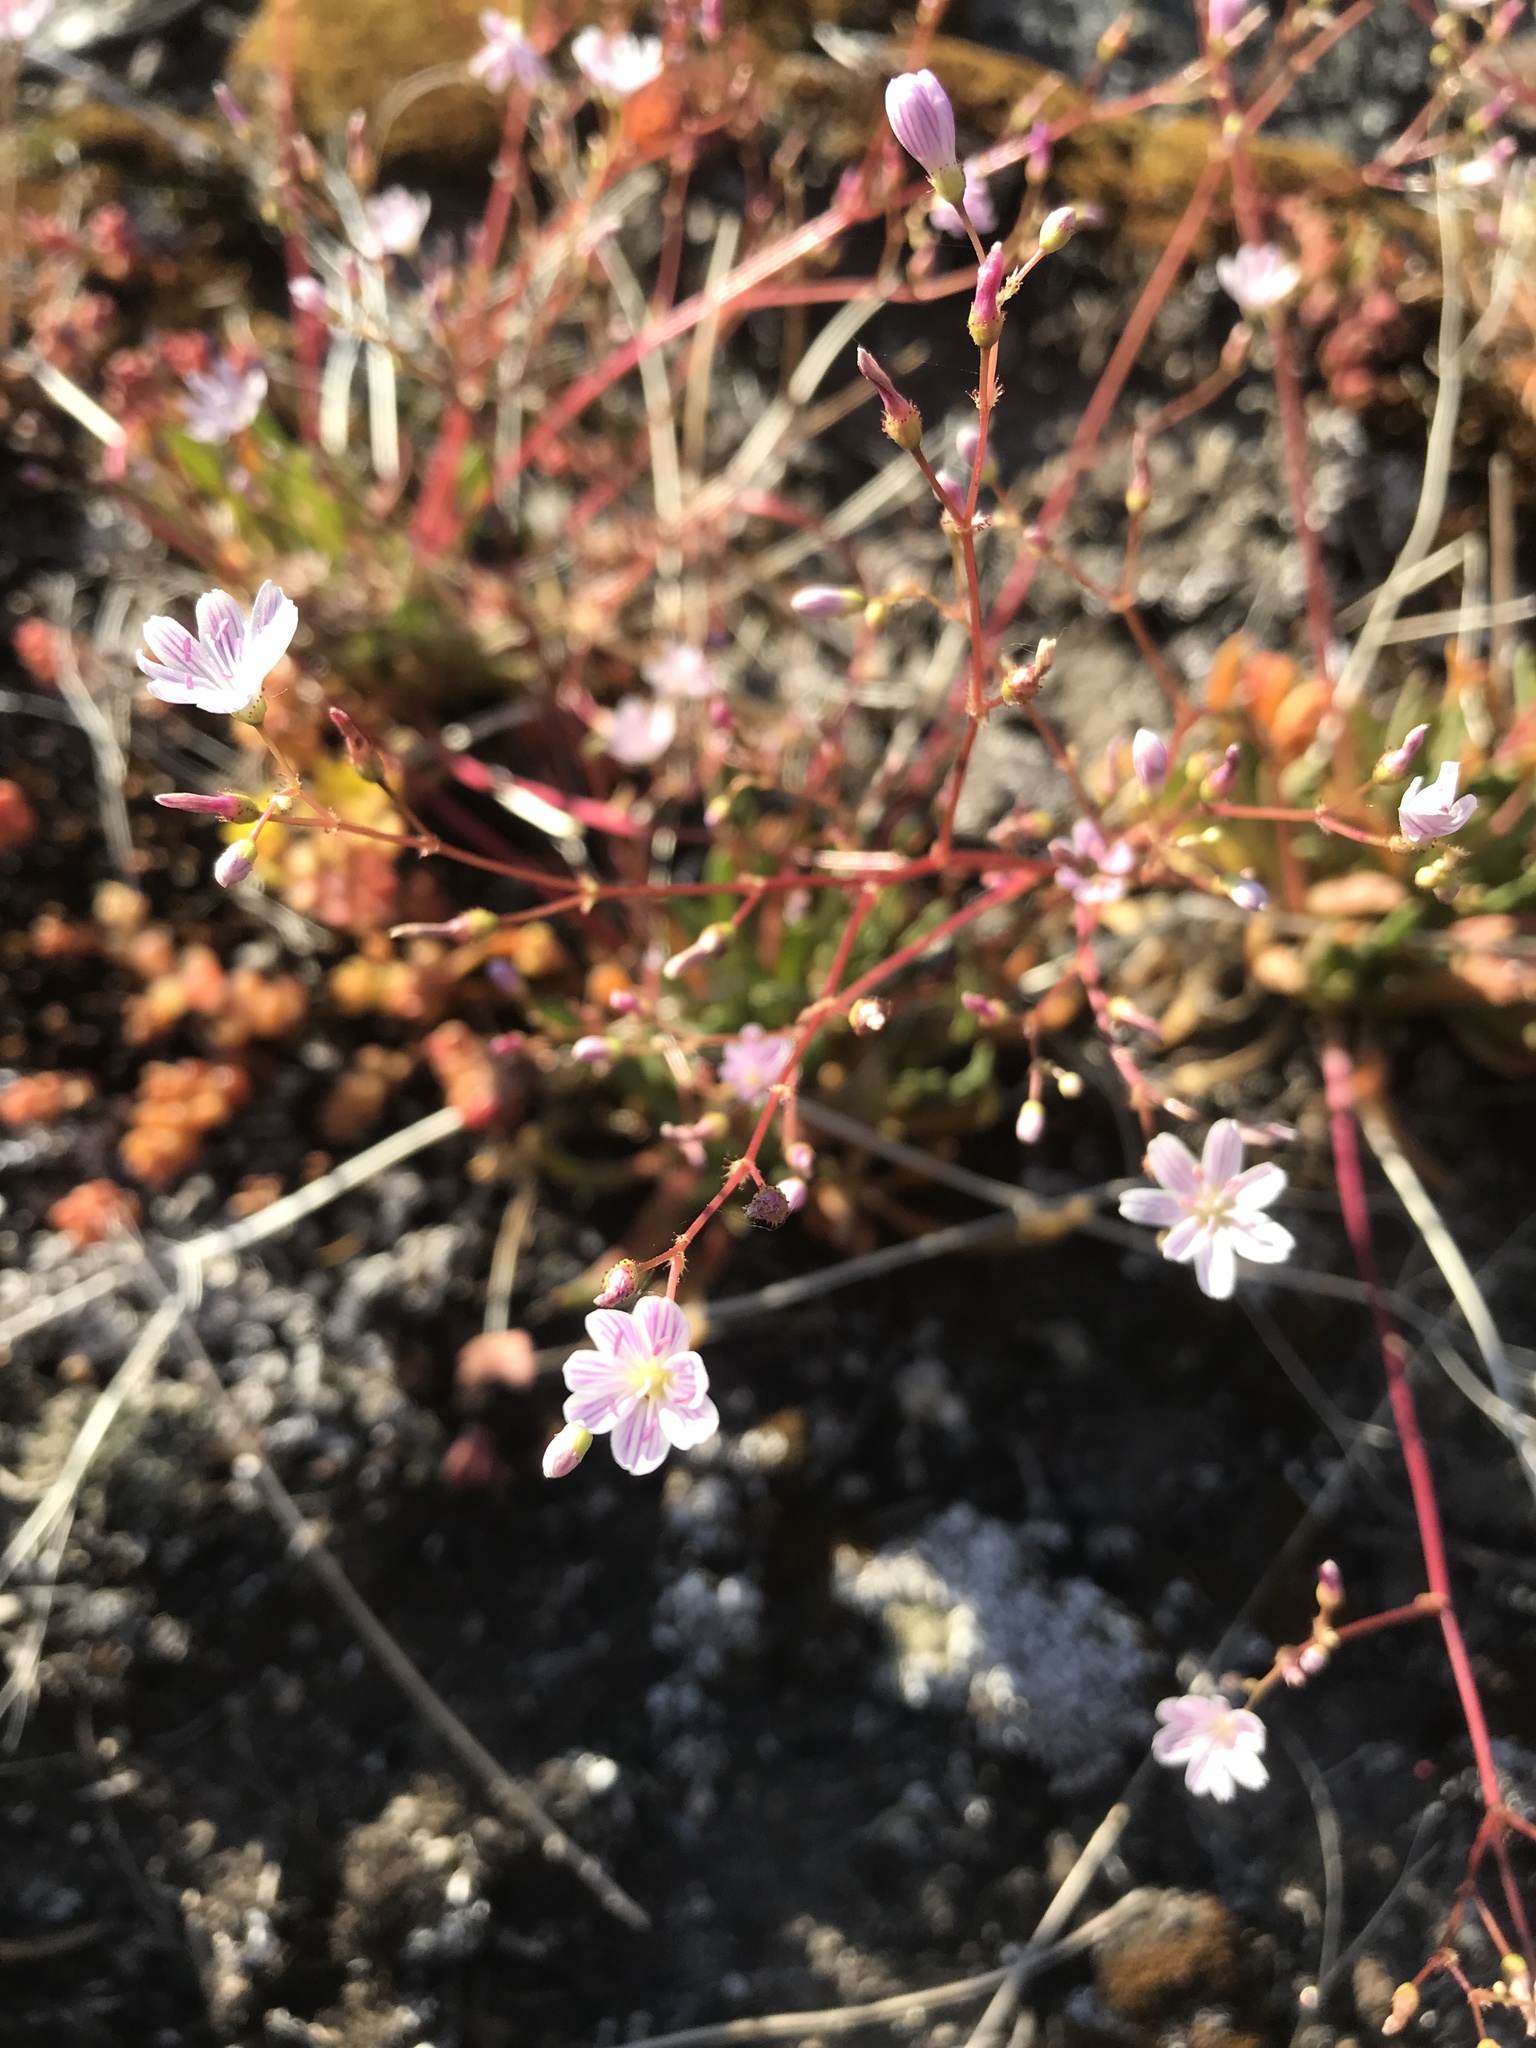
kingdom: Plantae
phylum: Tracheophyta
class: Magnoliopsida
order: Caryophyllales
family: Montiaceae
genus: Lewisia
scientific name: Lewisia columbiana
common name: Columbia lewisia
